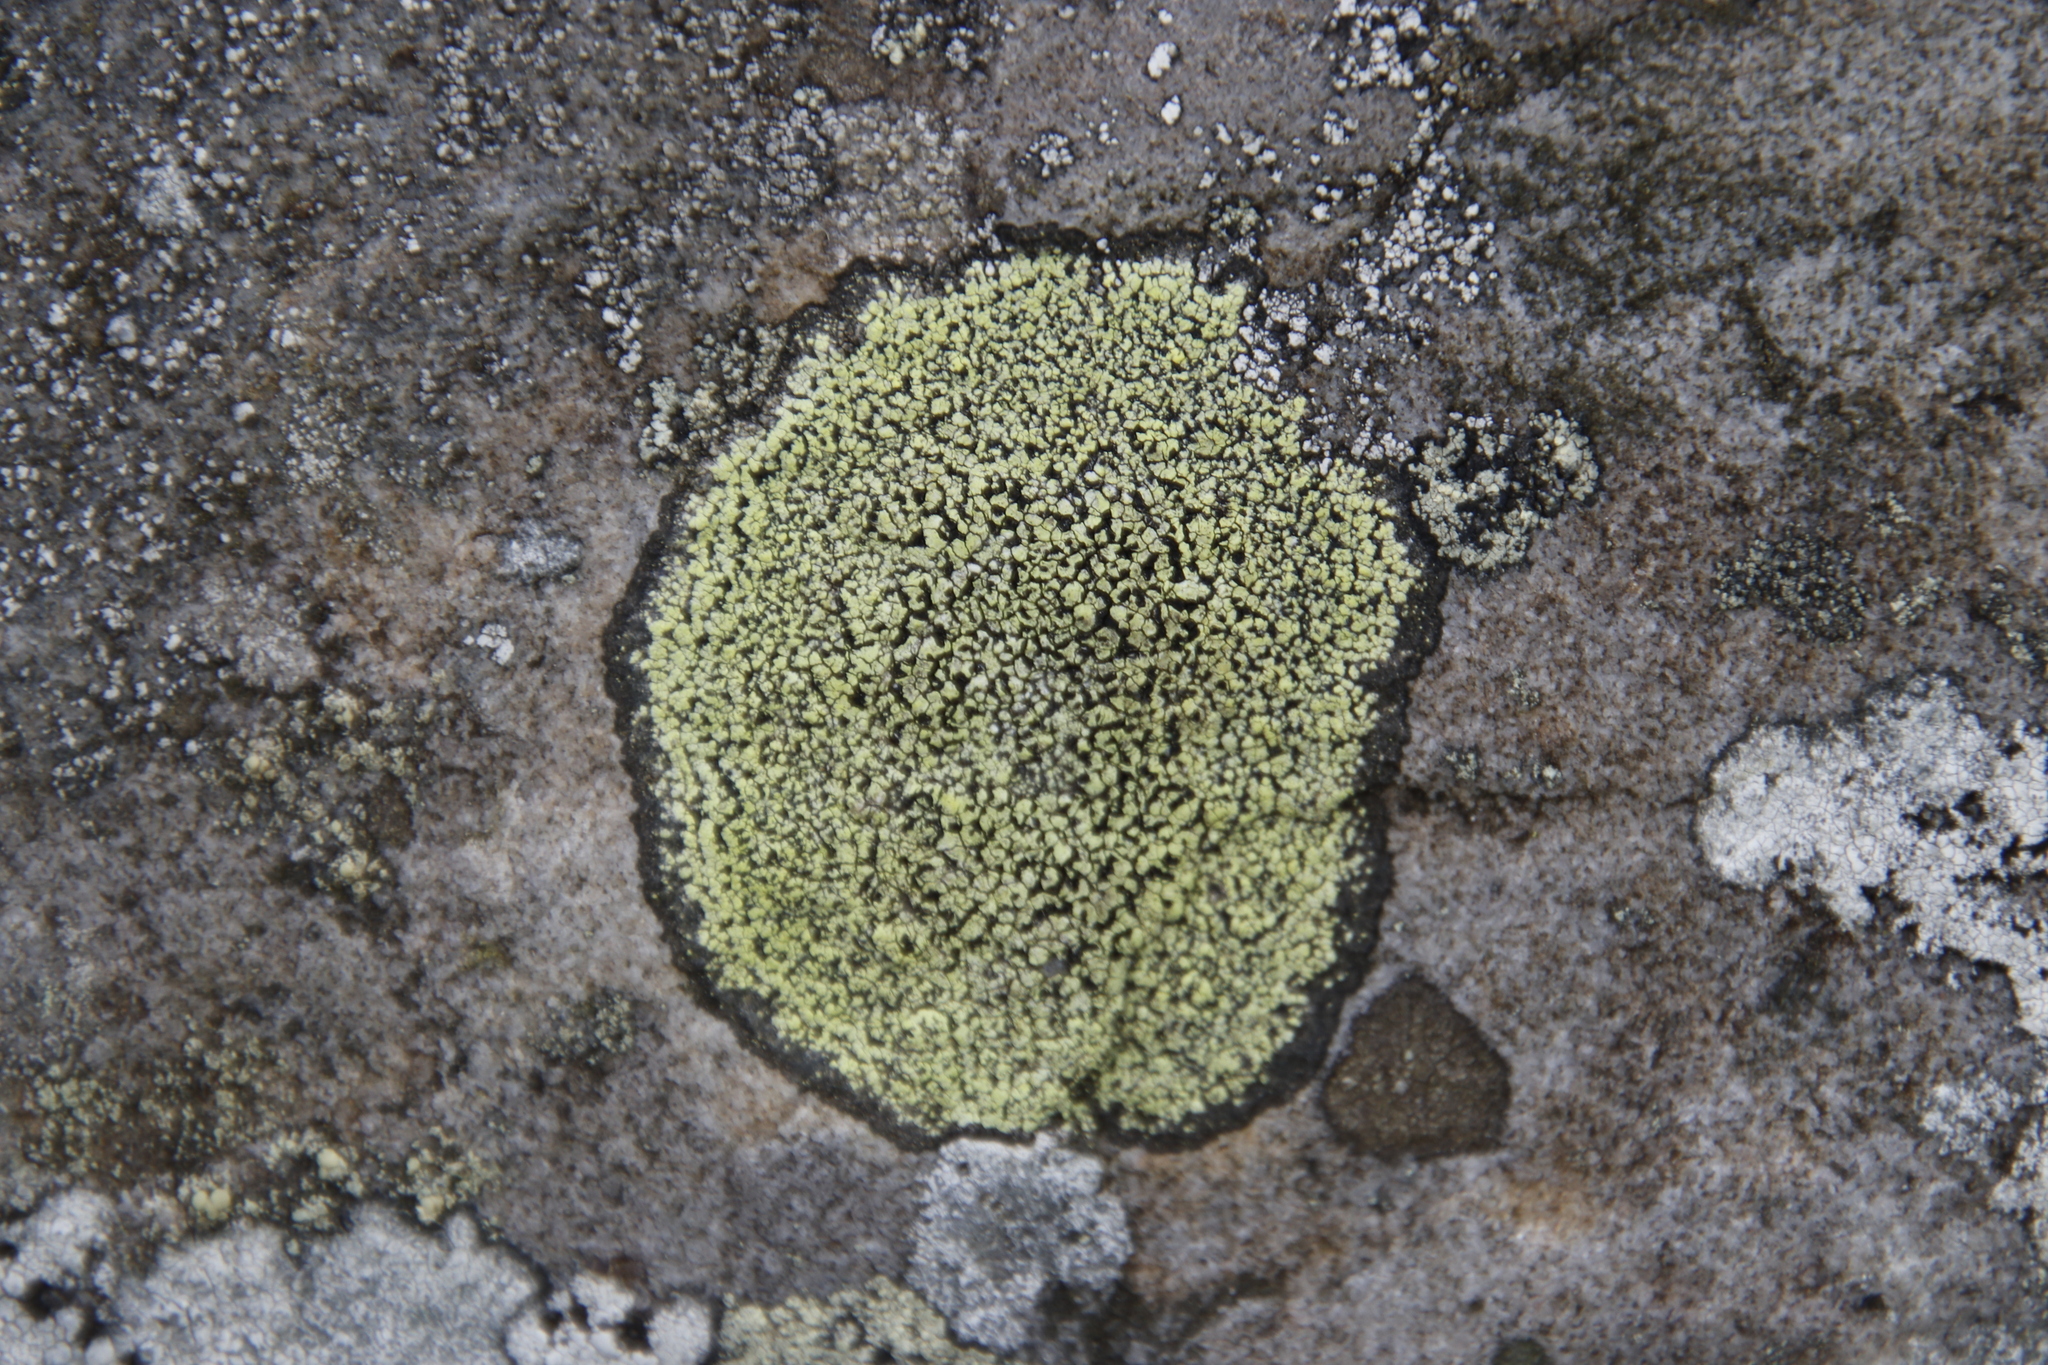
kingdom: Fungi
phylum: Ascomycota
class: Lecanoromycetes
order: Rhizocarpales
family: Rhizocarpaceae
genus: Rhizocarpon
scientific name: Rhizocarpon geographicum
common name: Yellow map lichen
